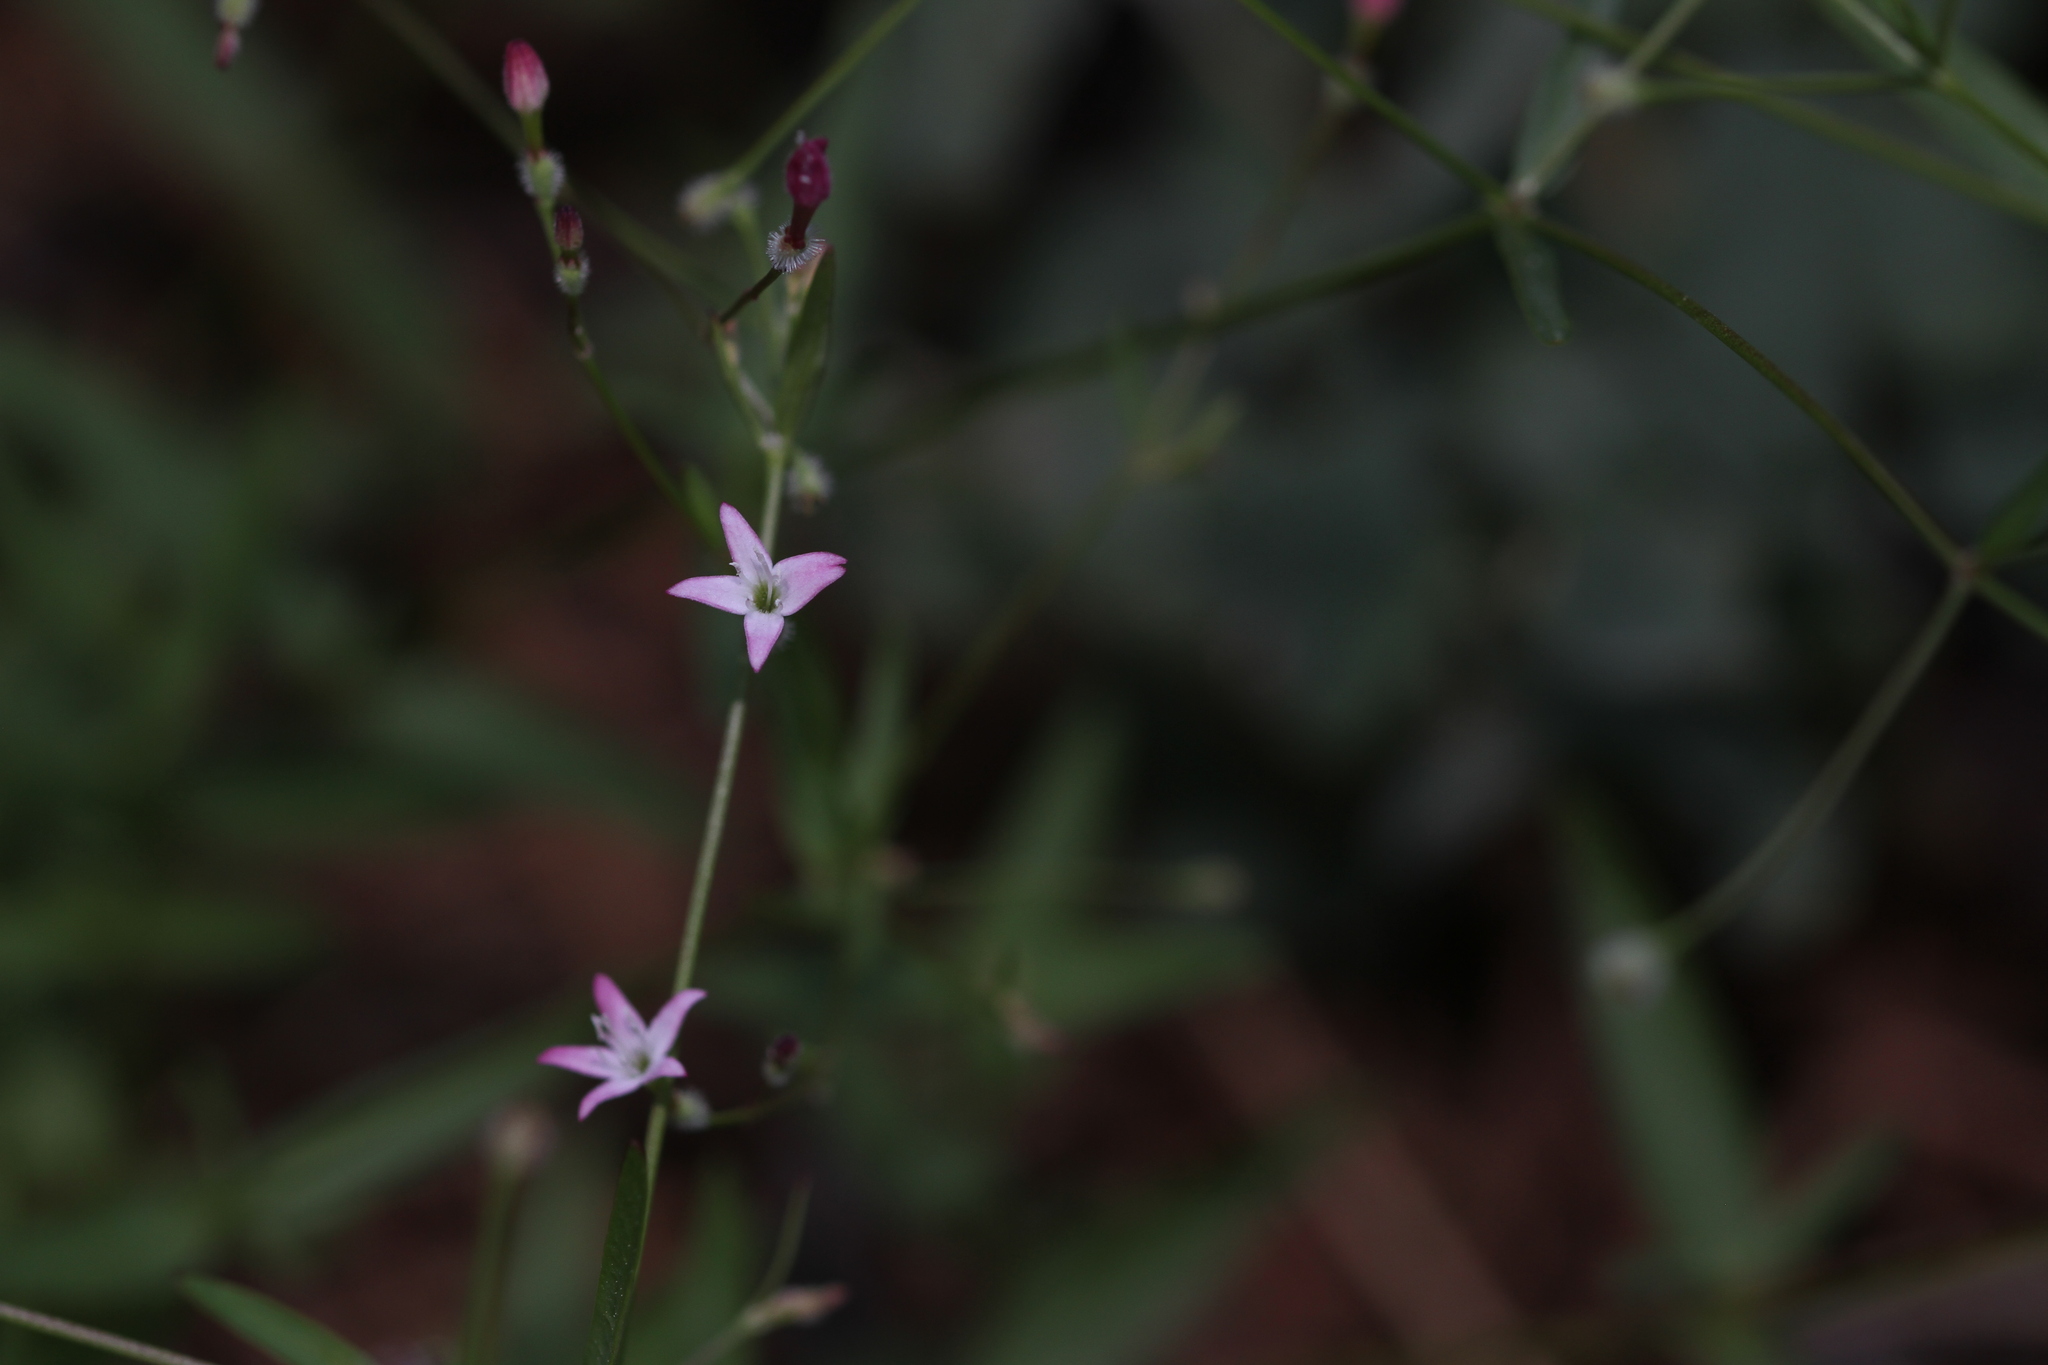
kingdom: Plantae
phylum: Tracheophyta
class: Magnoliopsida
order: Gentianales
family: Rubiaceae
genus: Kelloggia
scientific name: Kelloggia galioides
